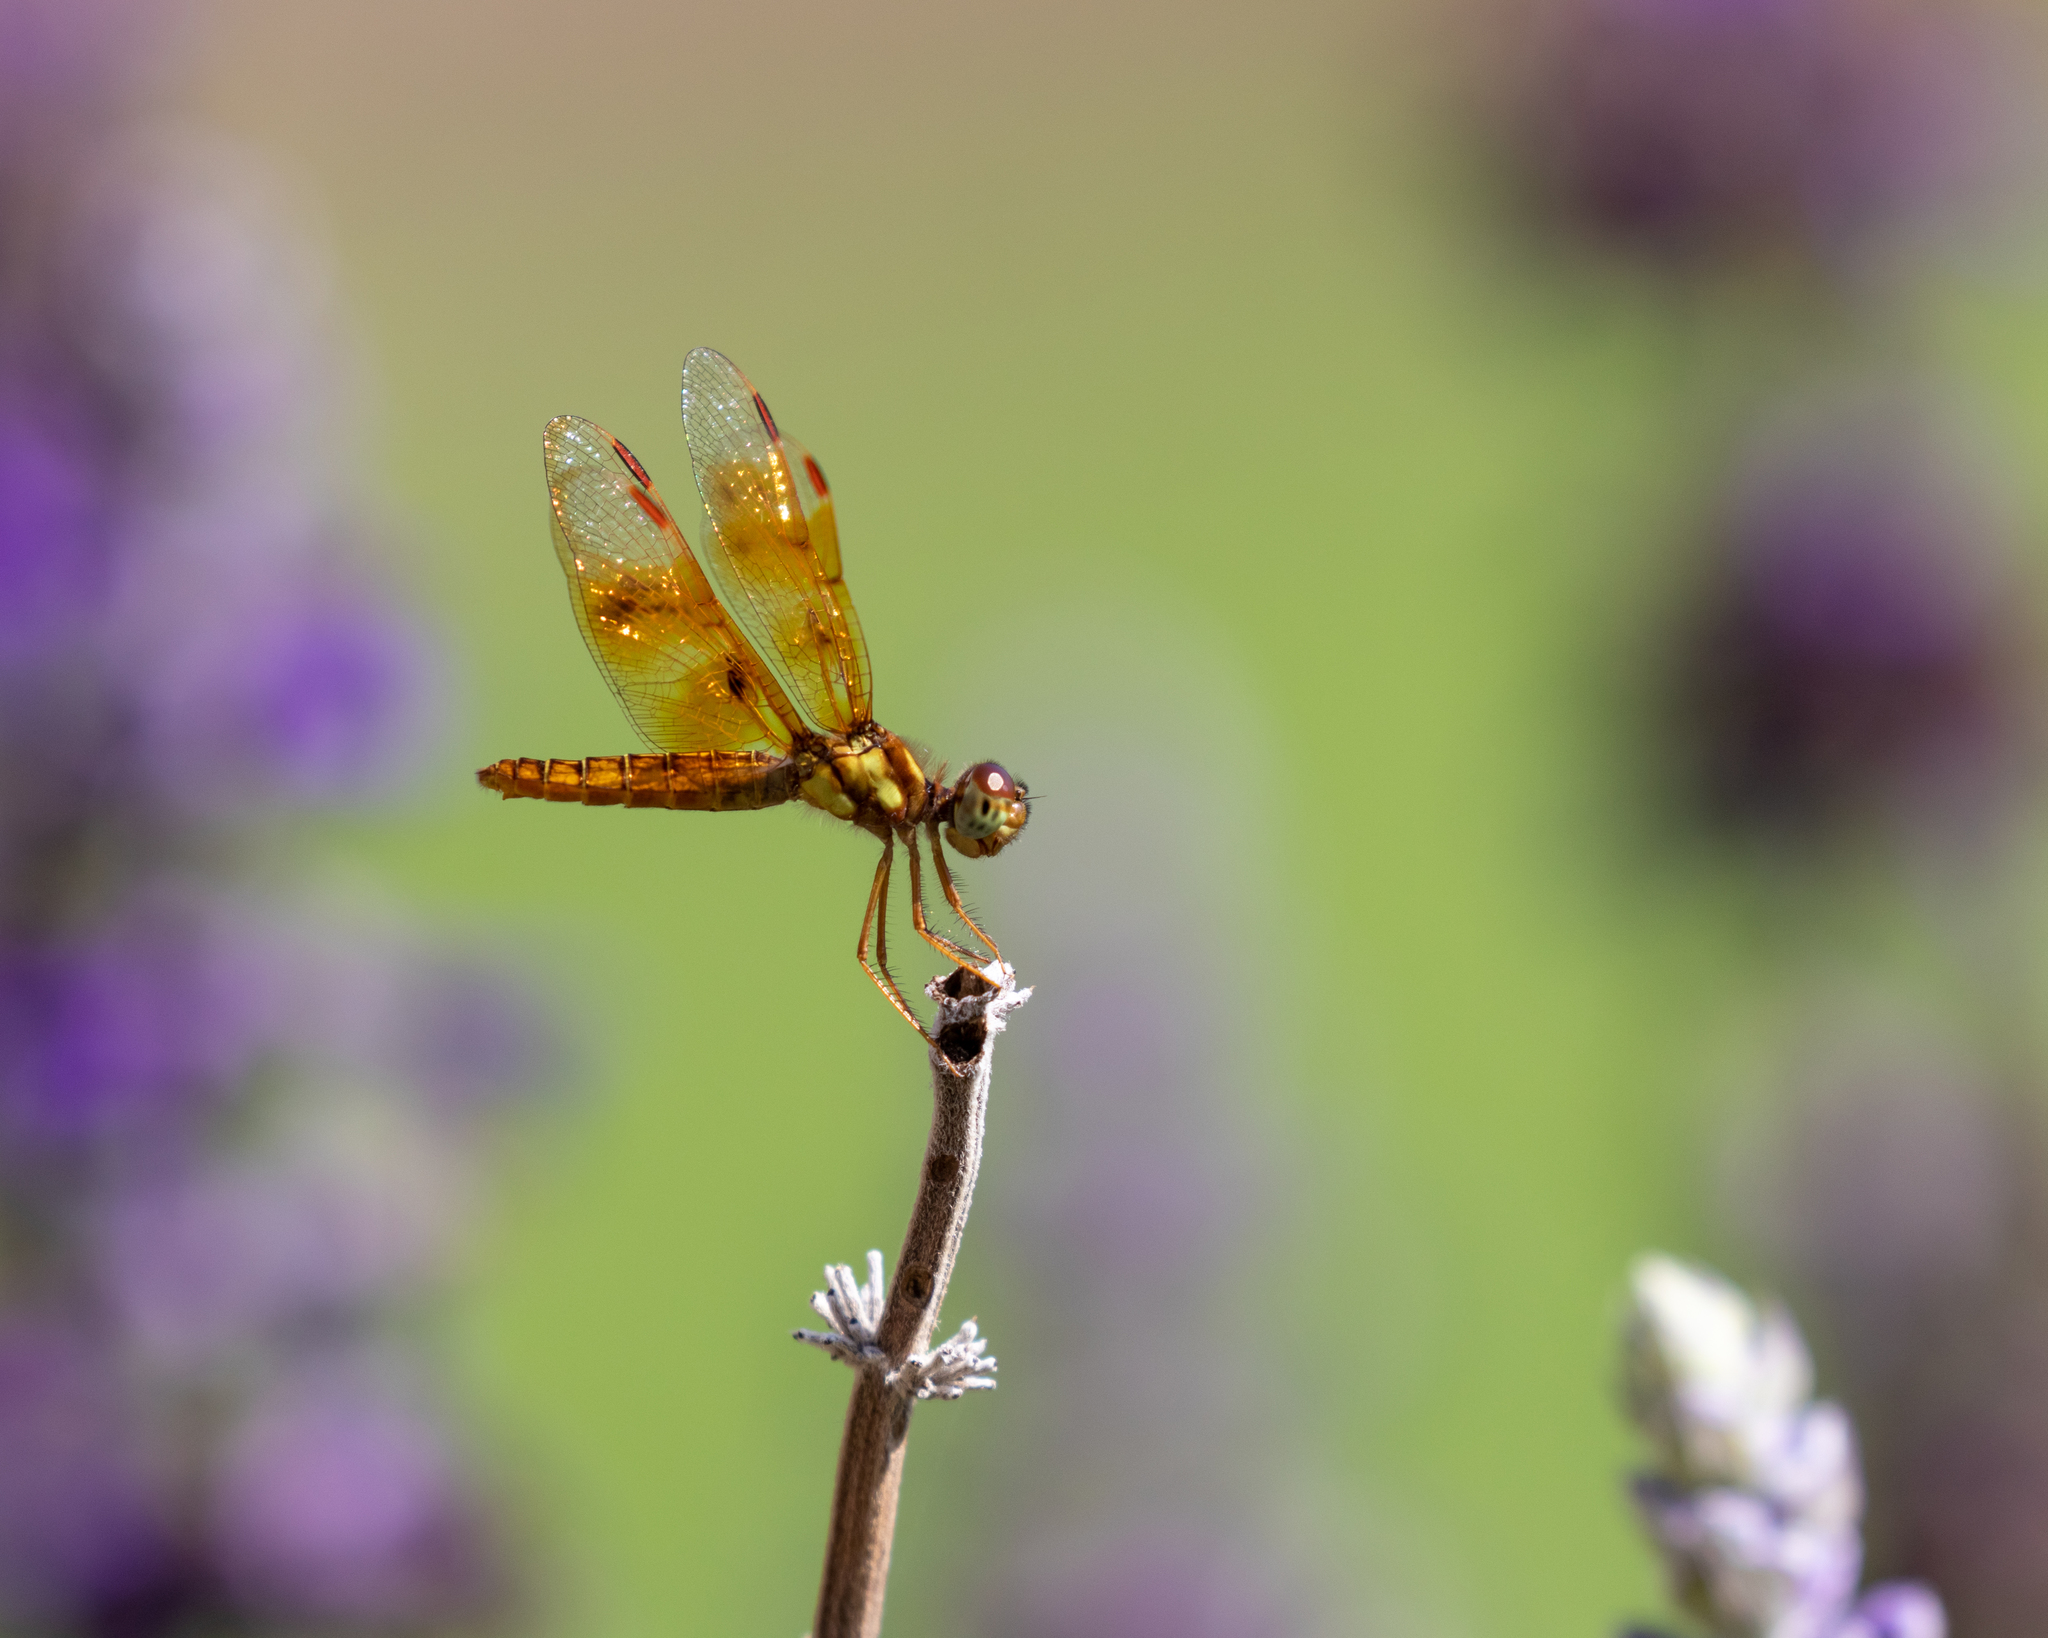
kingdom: Animalia
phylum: Arthropoda
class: Insecta
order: Odonata
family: Libellulidae
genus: Perithemis
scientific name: Perithemis tenera
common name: Eastern amberwing
